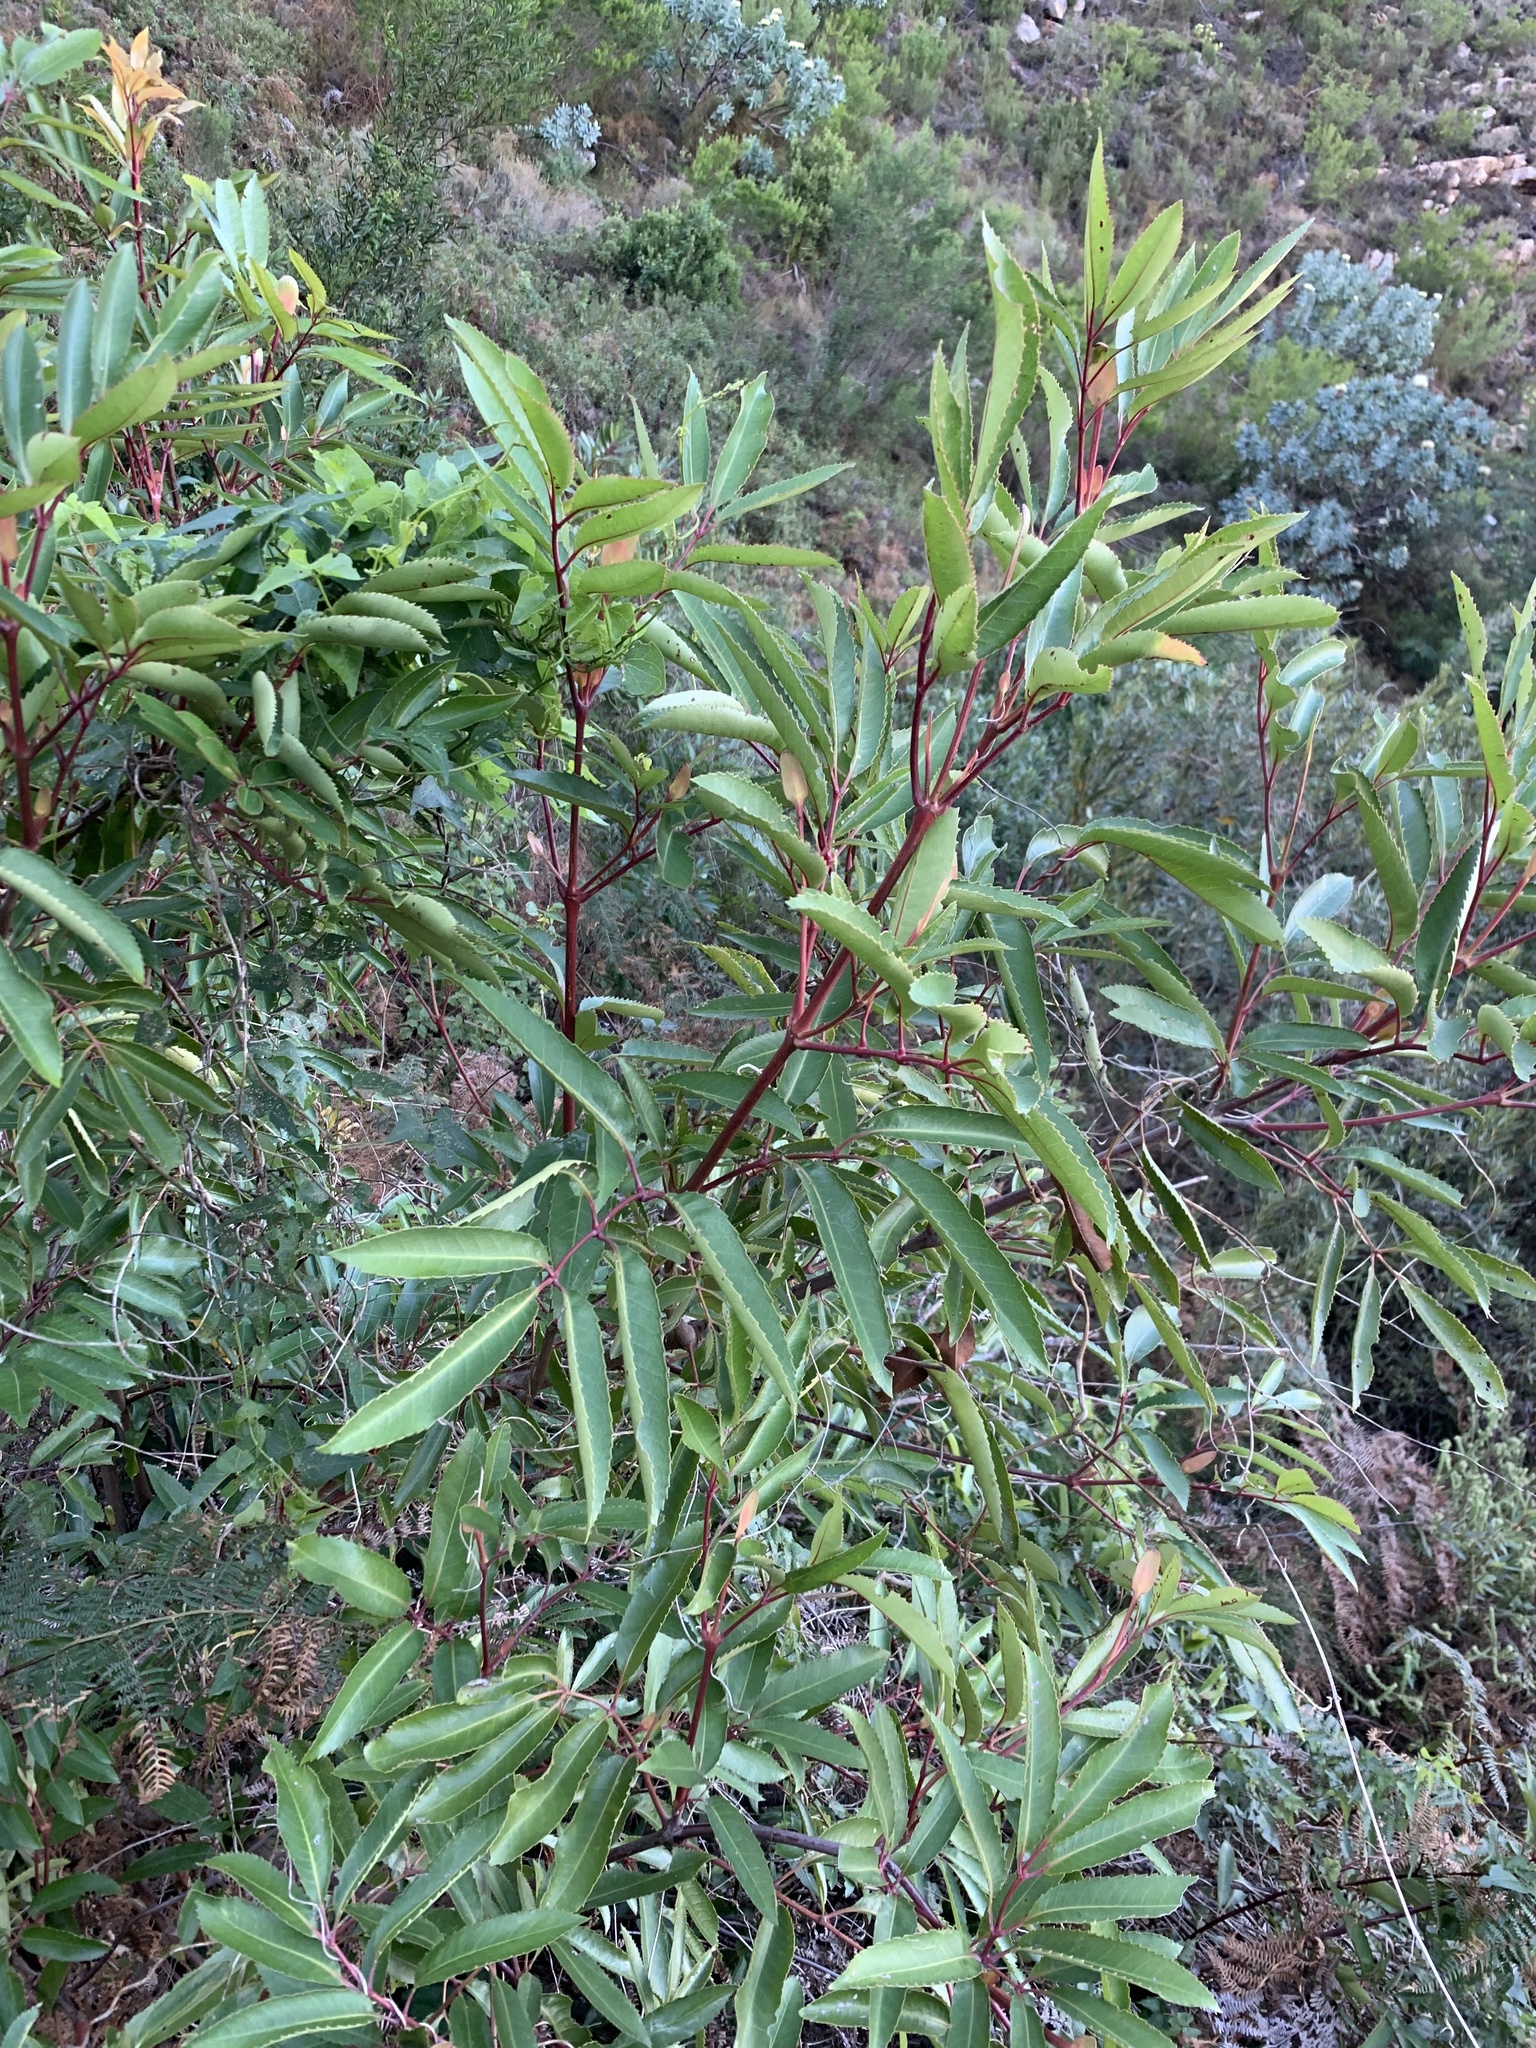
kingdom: Plantae
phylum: Tracheophyta
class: Magnoliopsida
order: Oxalidales
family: Cunoniaceae
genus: Cunonia
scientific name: Cunonia capensis
